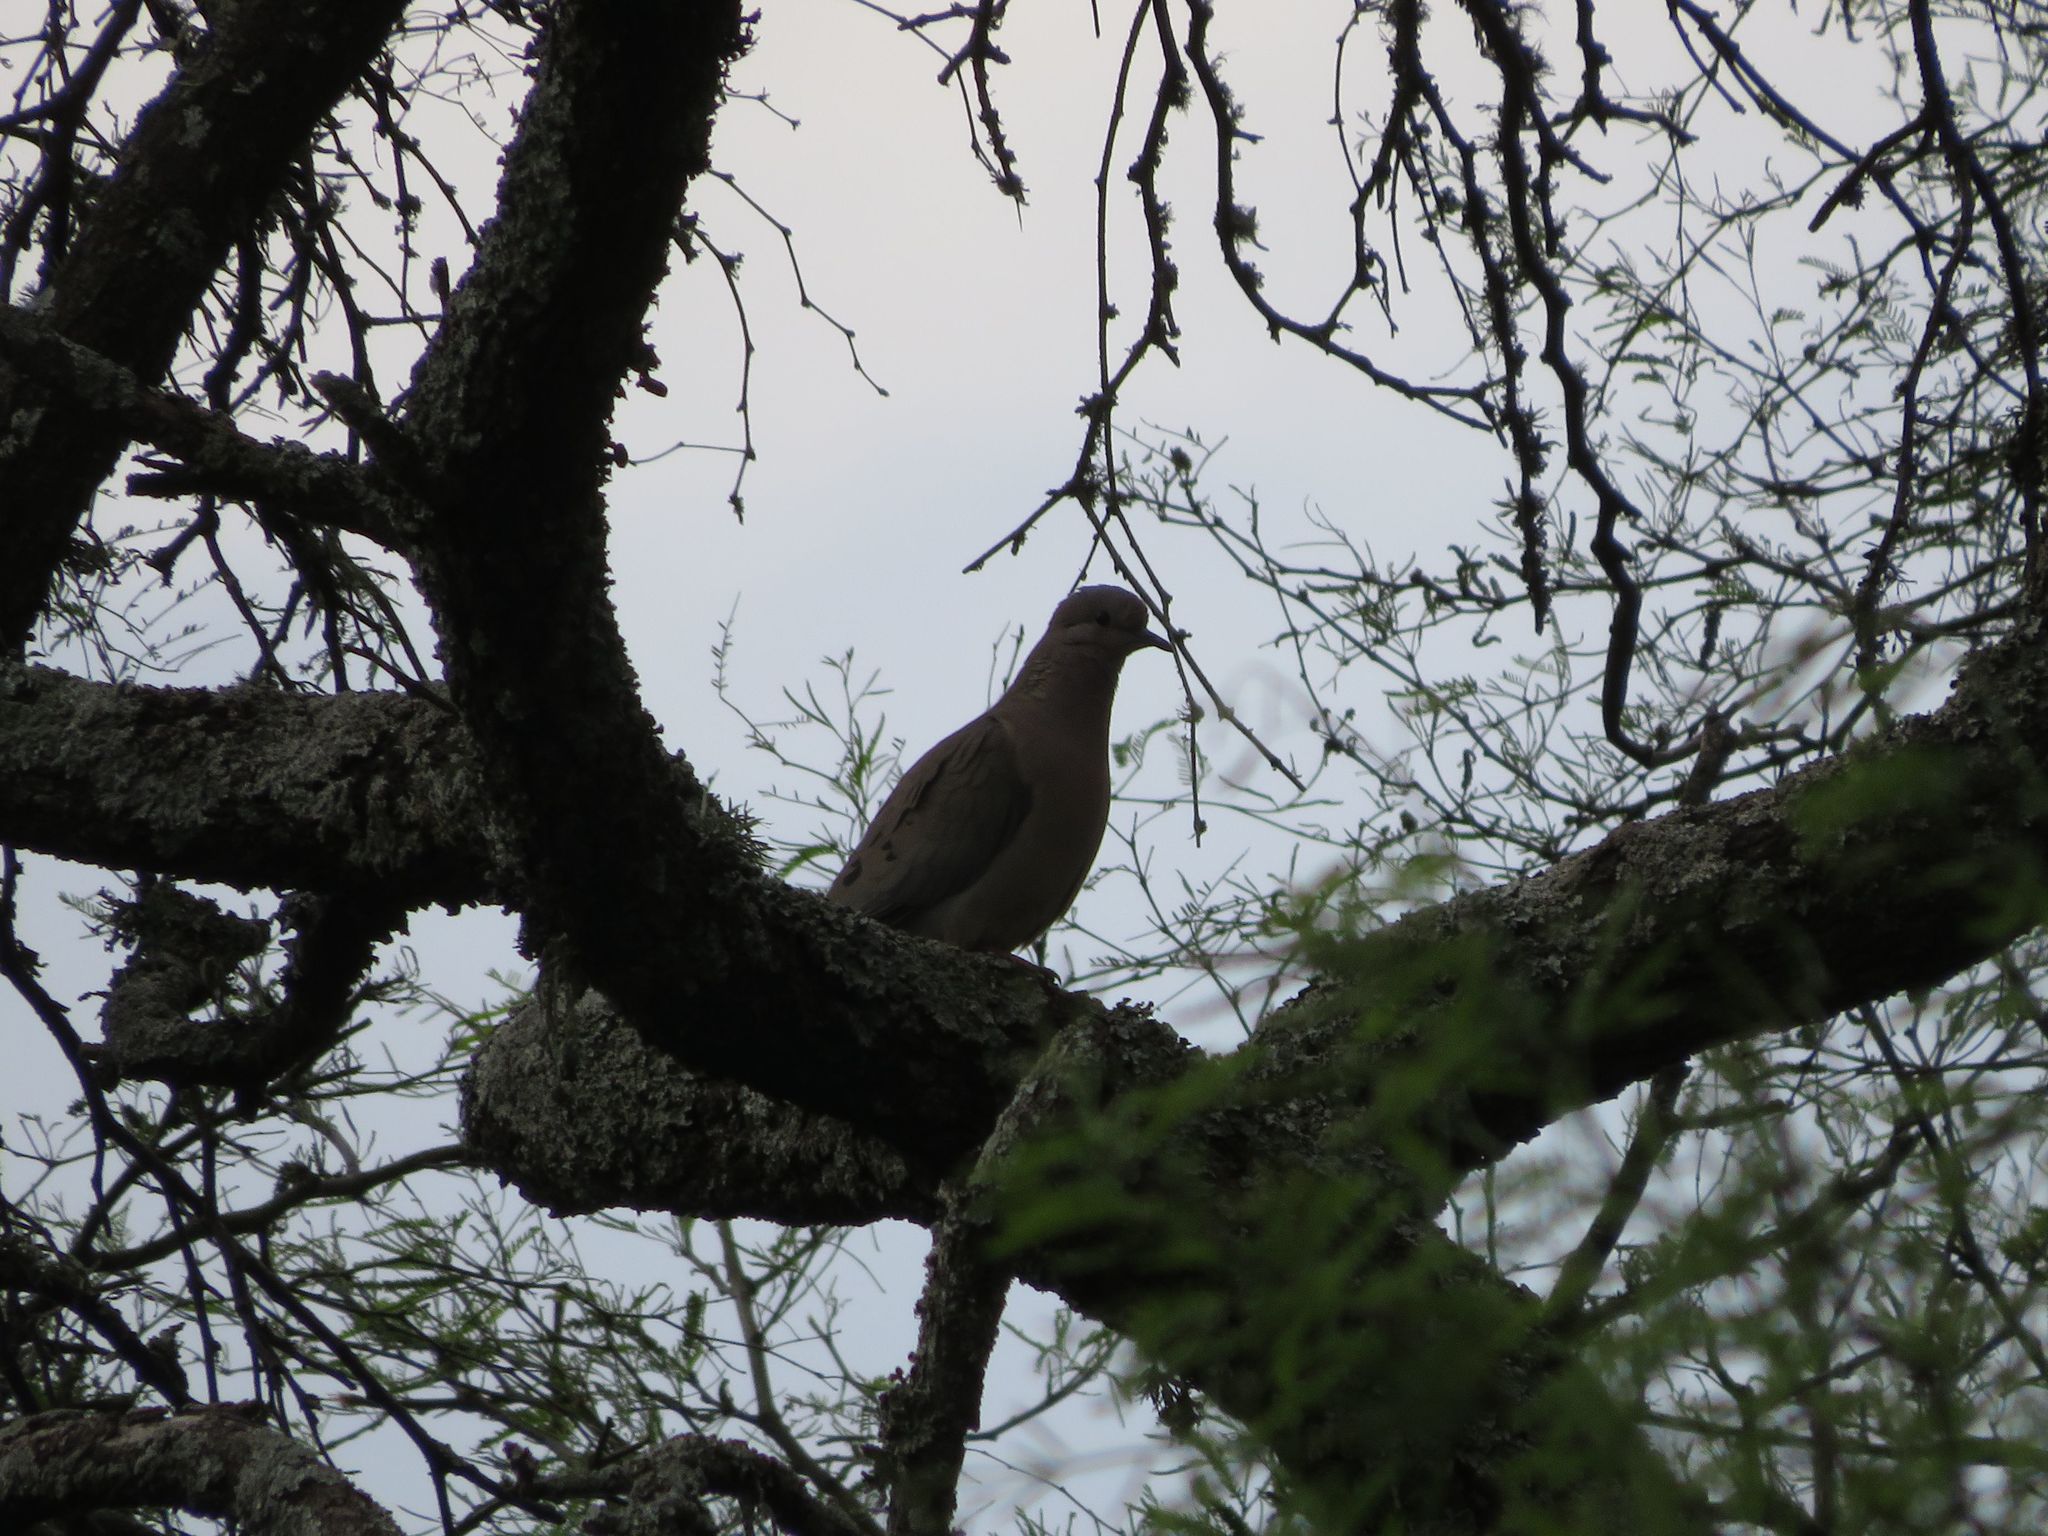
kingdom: Animalia
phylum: Chordata
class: Aves
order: Columbiformes
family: Columbidae
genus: Zenaida
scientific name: Zenaida auriculata
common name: Eared dove
